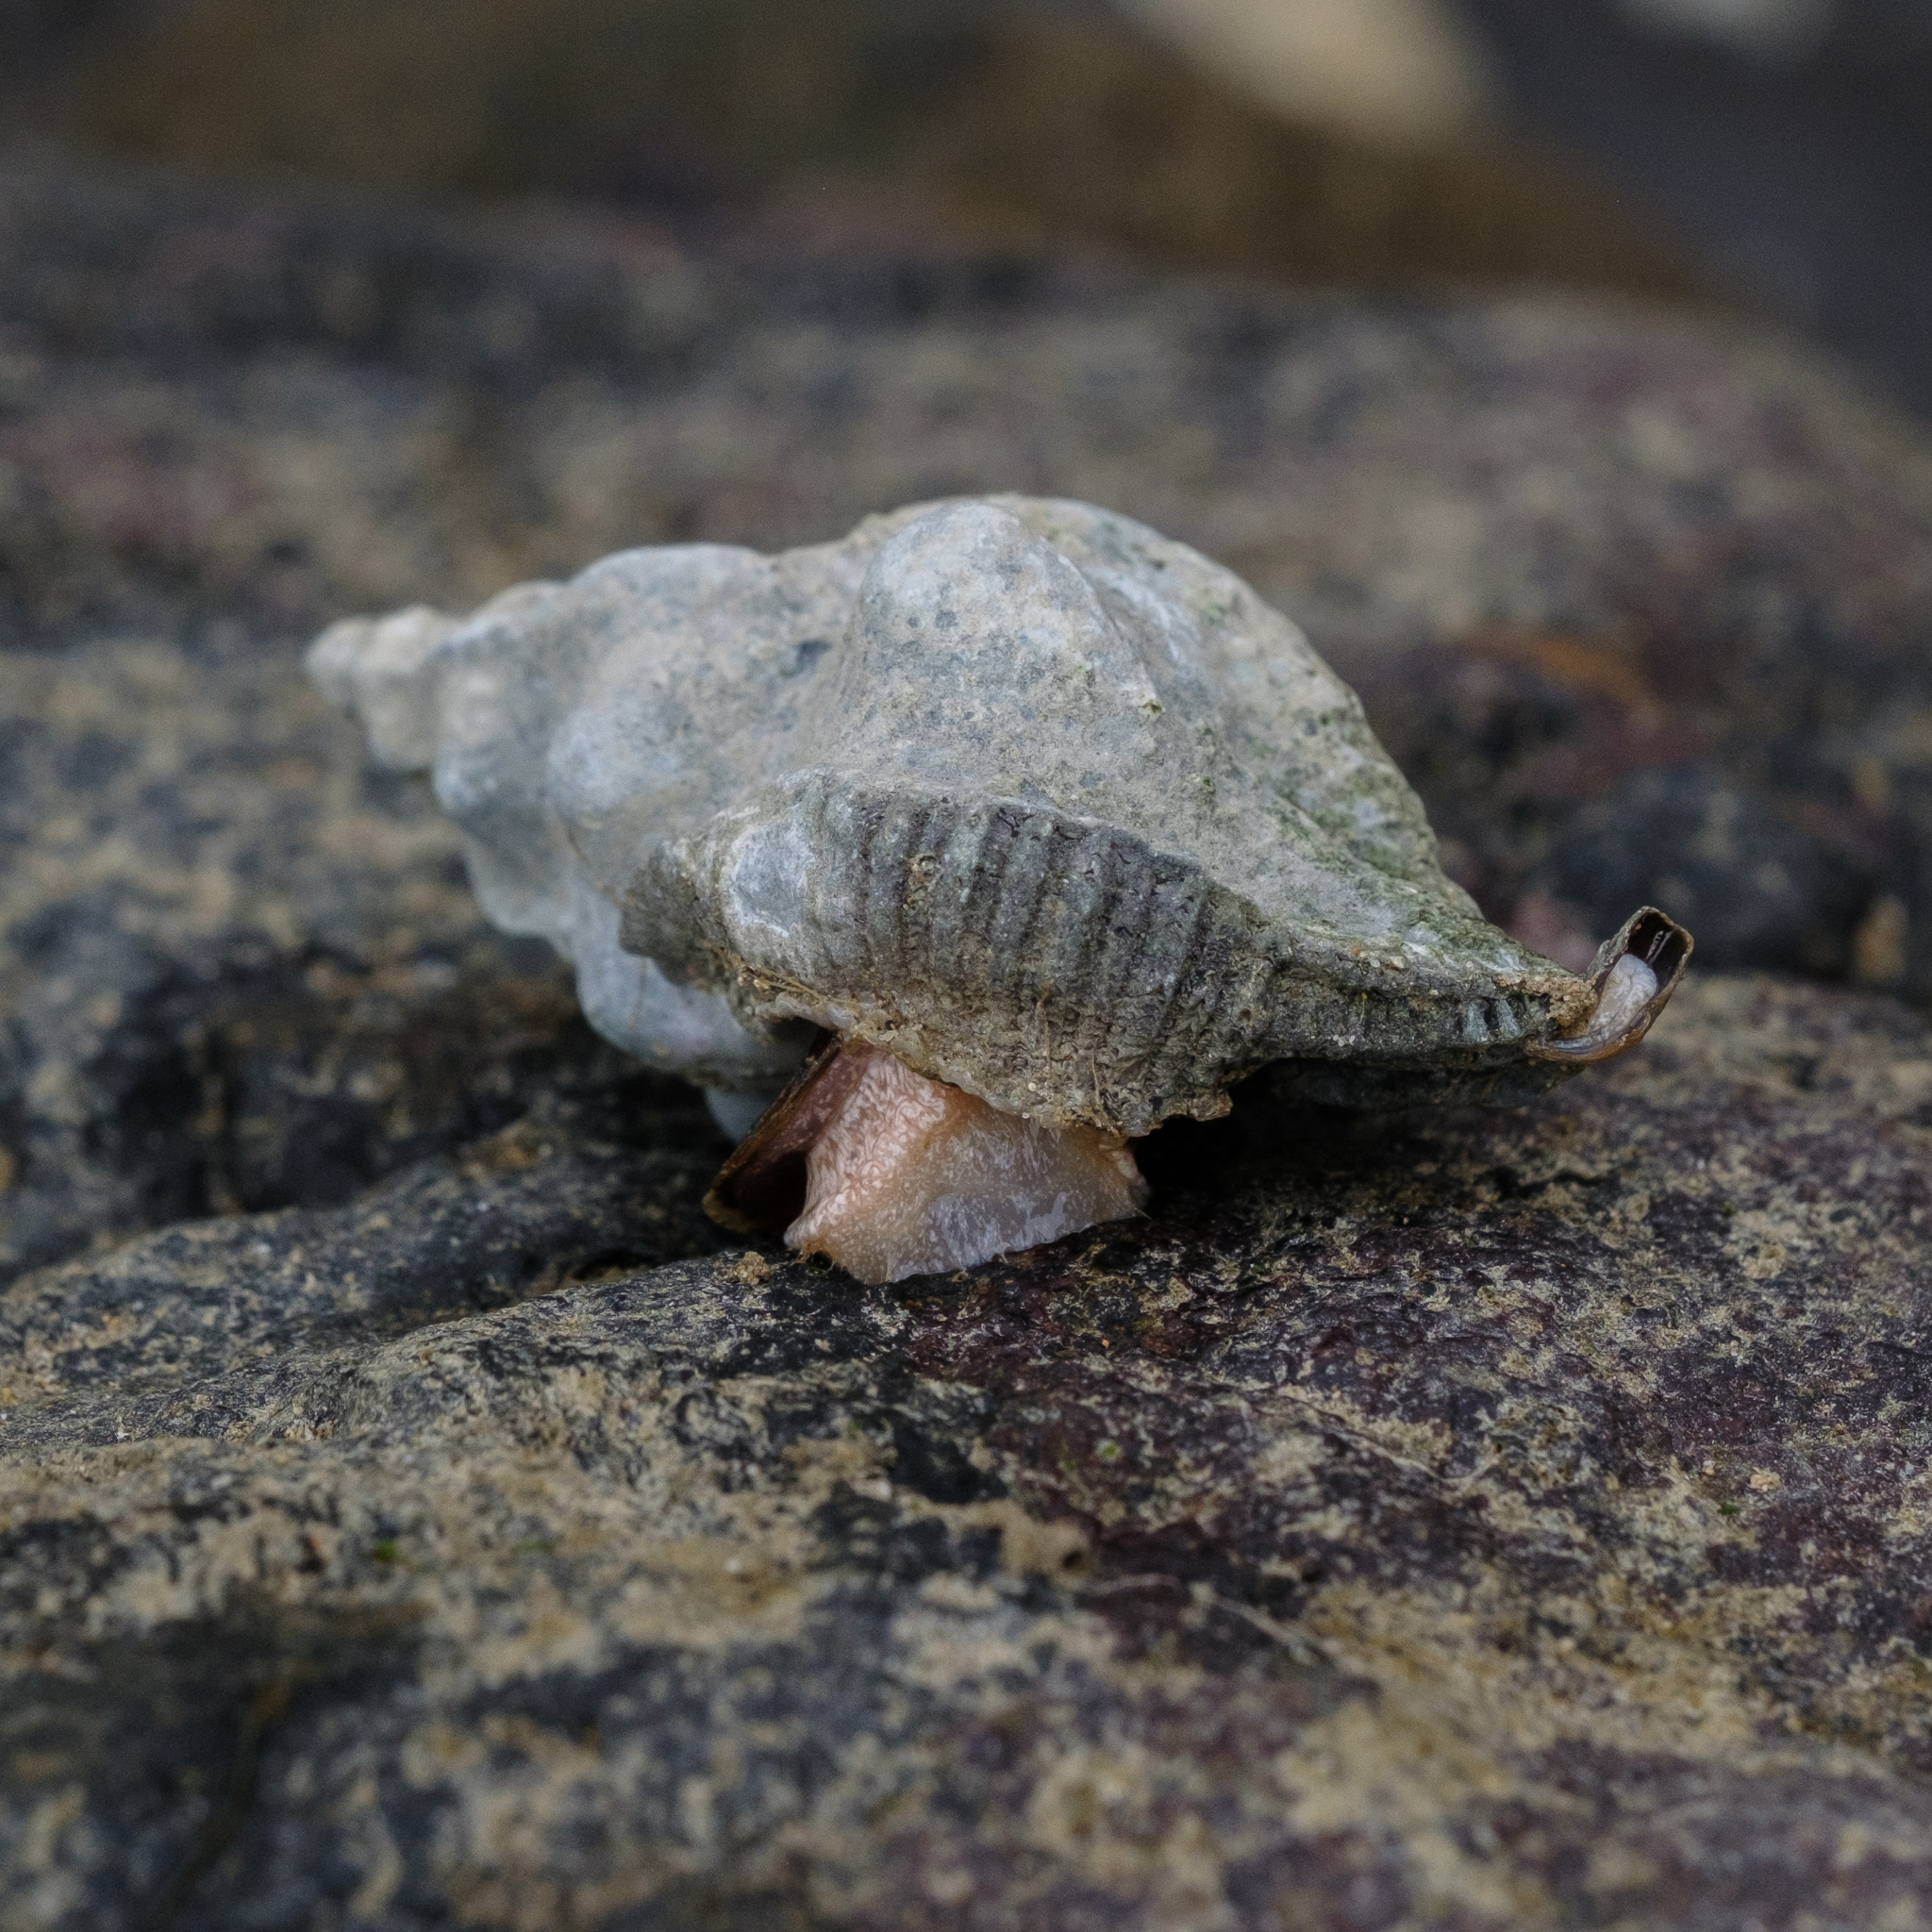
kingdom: Animalia
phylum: Mollusca
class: Gastropoda
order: Neogastropoda
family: Muricidae
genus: Pteropurpura
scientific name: Pteropurpura festiva
